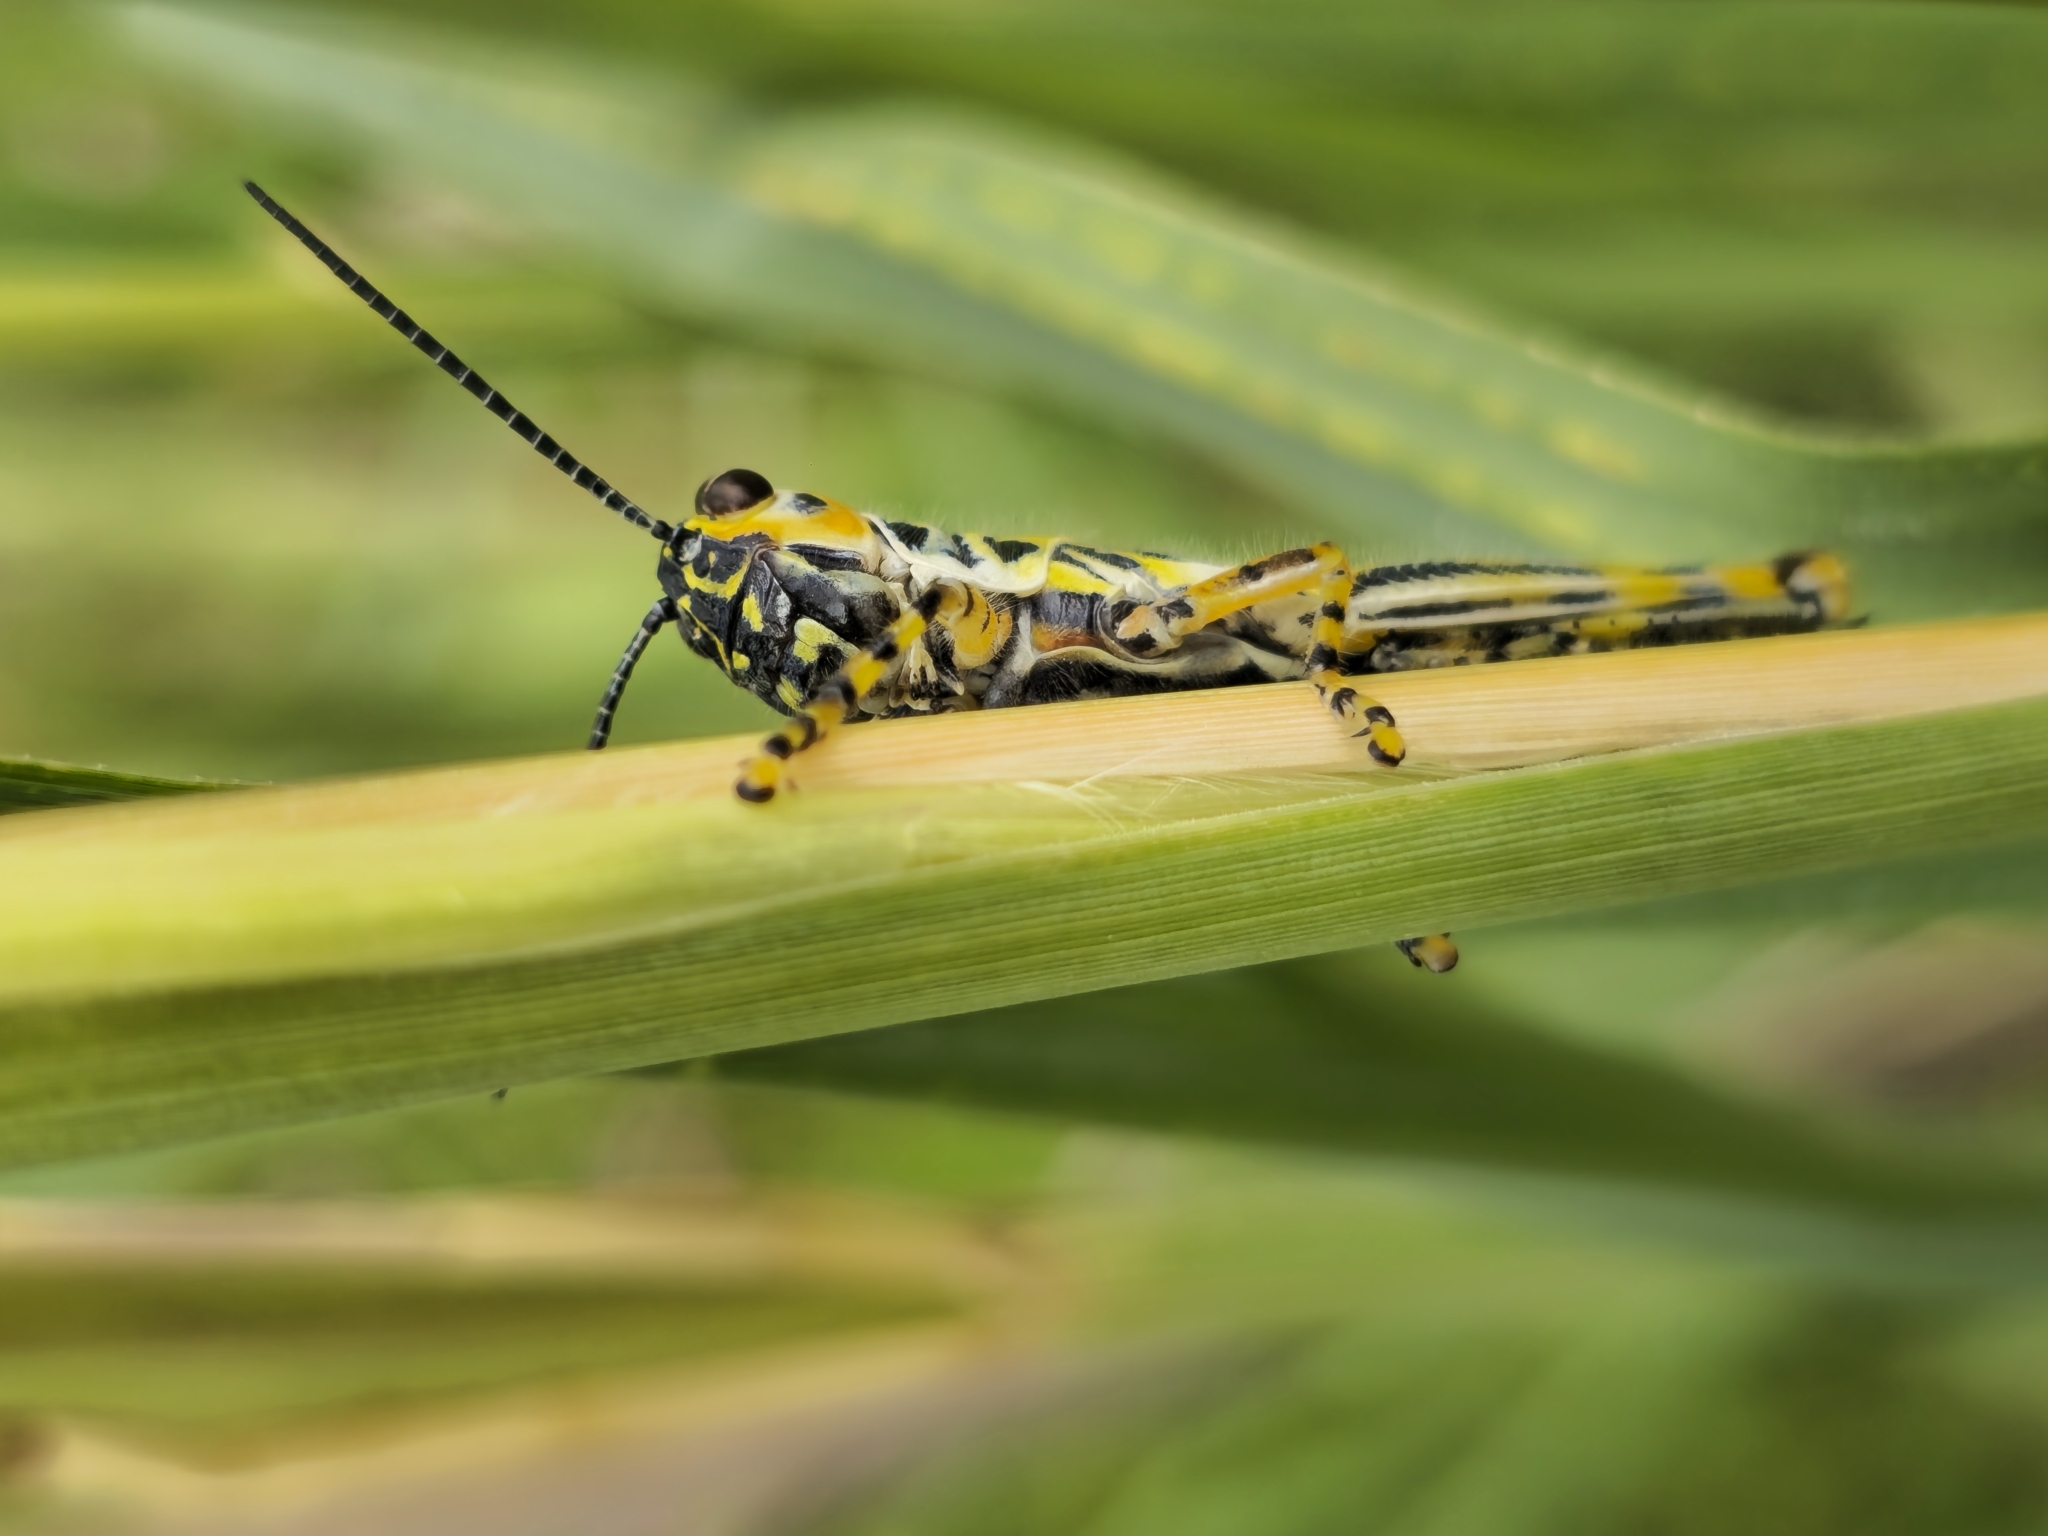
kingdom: Animalia
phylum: Arthropoda
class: Insecta
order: Orthoptera
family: Acrididae
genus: Adimantus
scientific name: Adimantus ornatissimus
